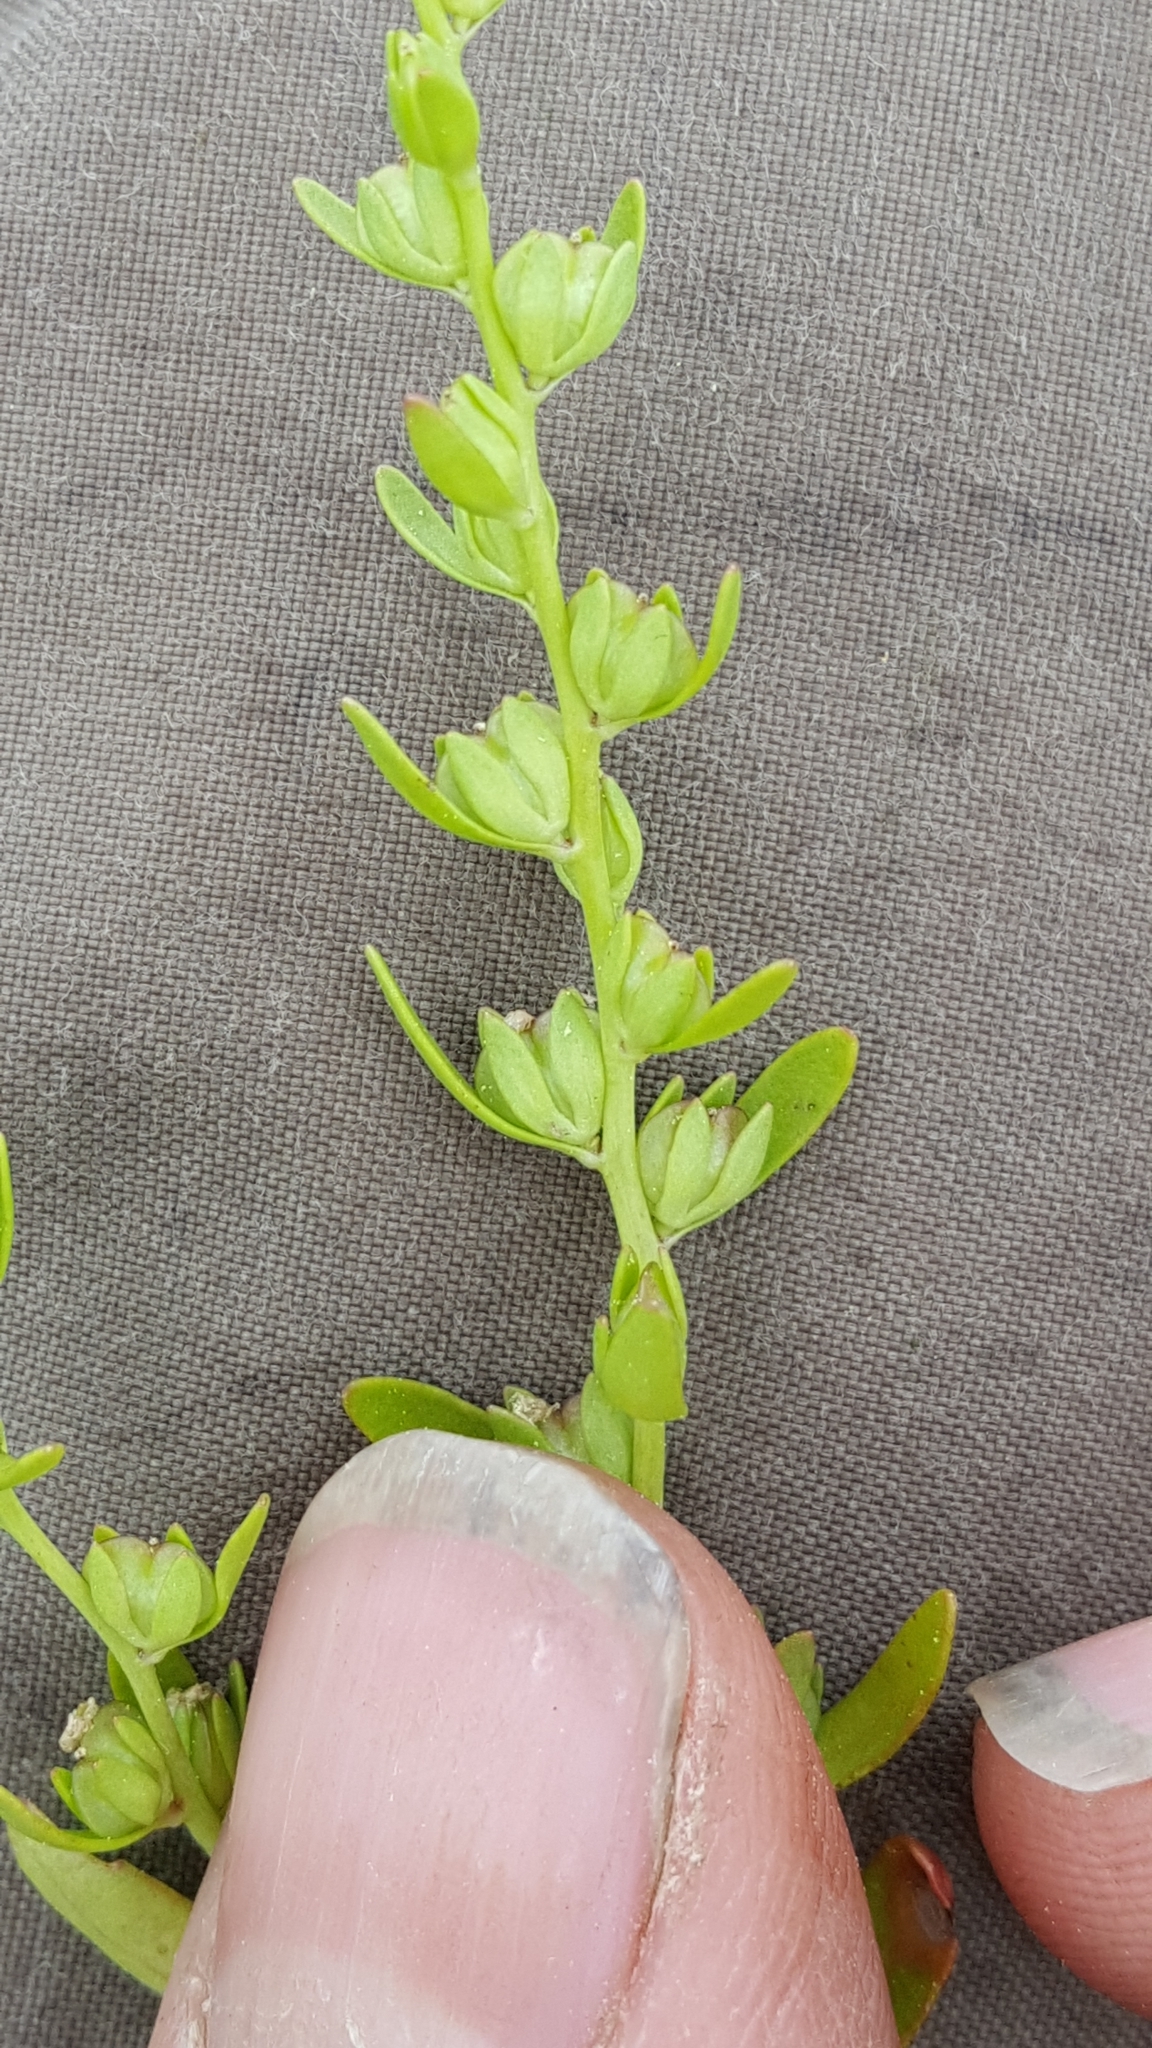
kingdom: Plantae
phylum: Tracheophyta
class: Magnoliopsida
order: Lamiales
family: Plantaginaceae
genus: Veronica
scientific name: Veronica peregrina
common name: Neckweed
